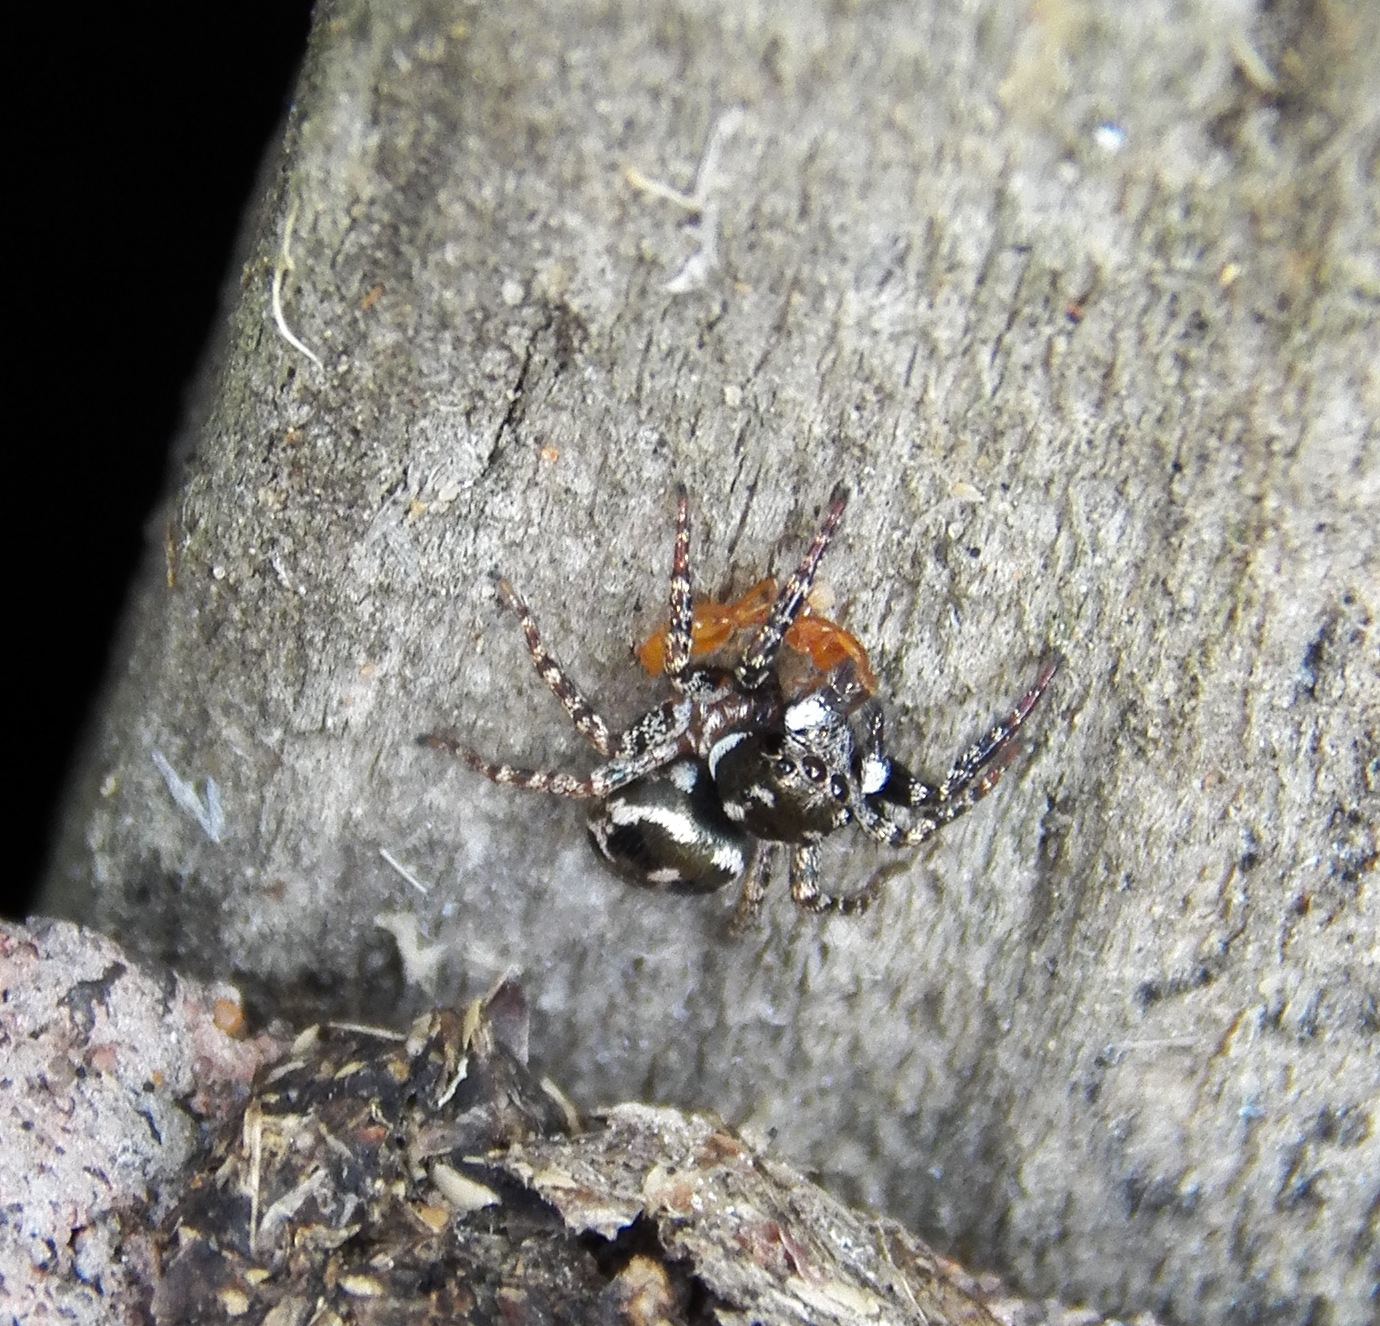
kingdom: Animalia
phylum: Arthropoda
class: Arachnida
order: Araneae
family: Salticidae
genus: Anasaitis
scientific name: Anasaitis canosa
